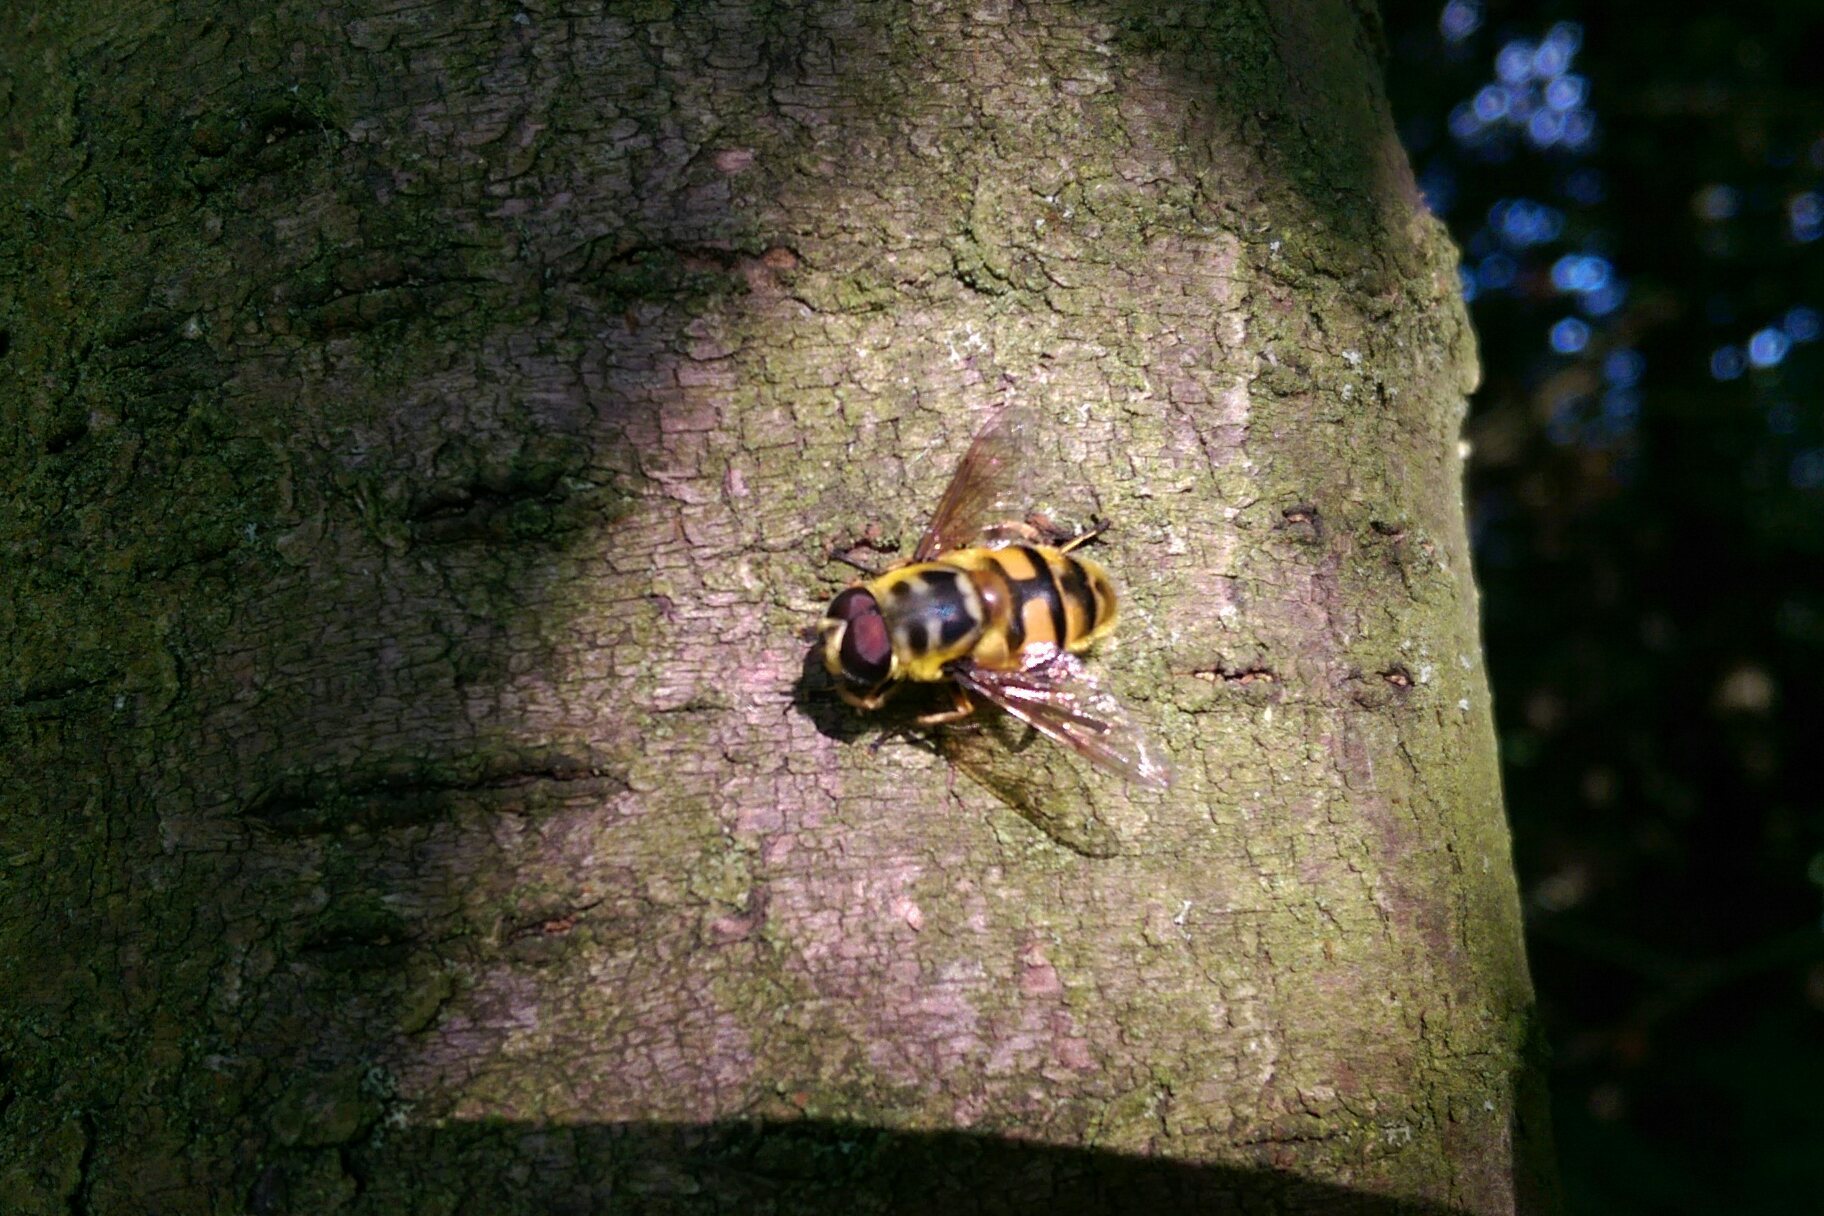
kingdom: Animalia
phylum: Arthropoda
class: Insecta
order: Diptera
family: Syrphidae
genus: Myathropa
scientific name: Myathropa florea
